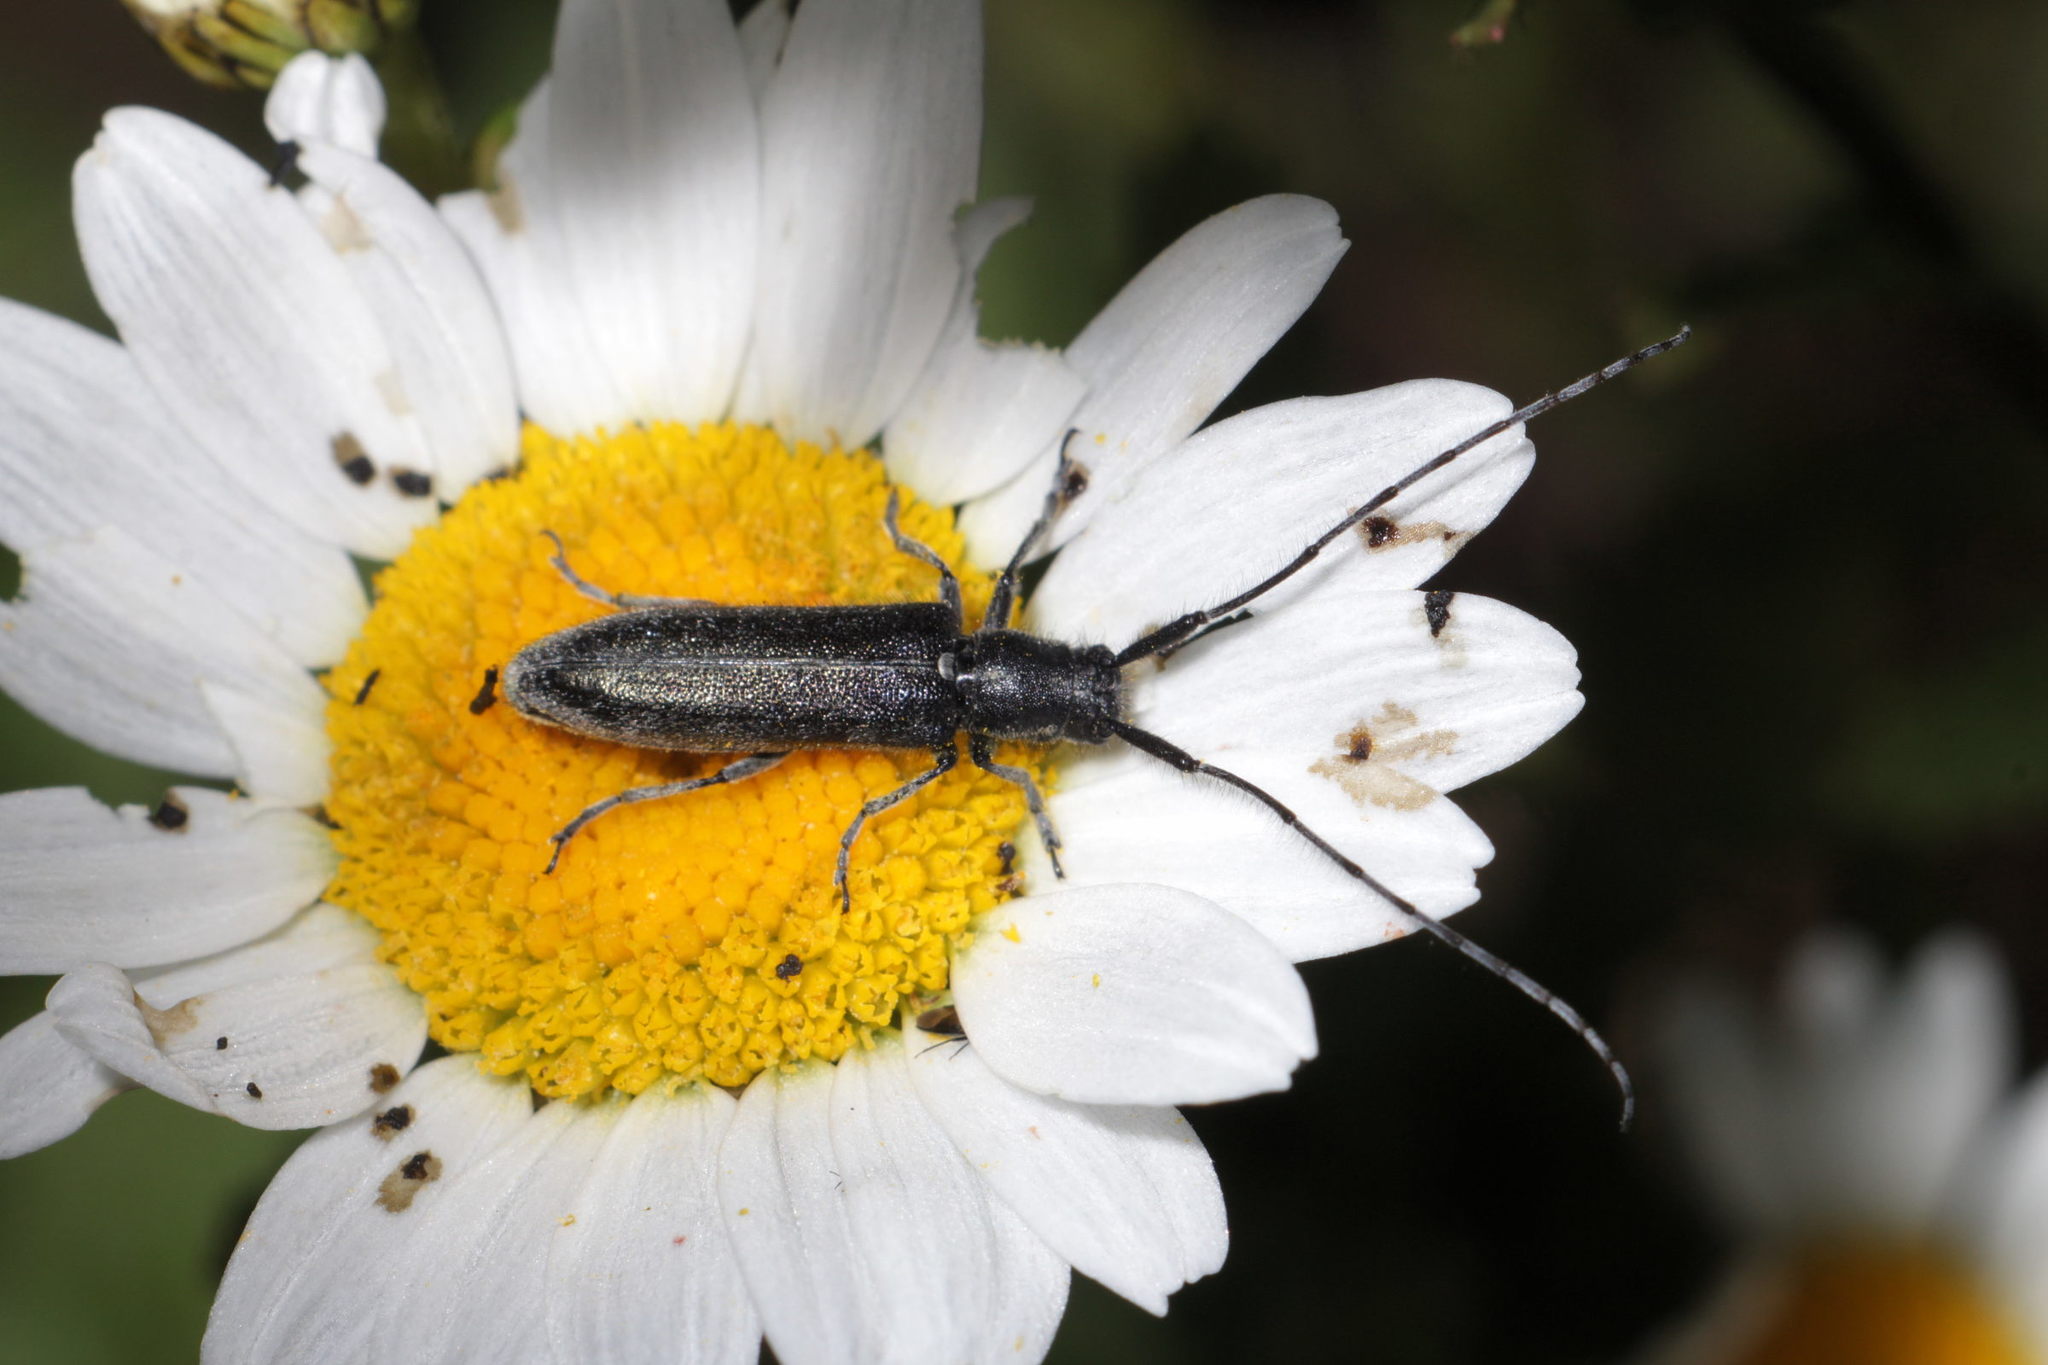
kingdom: Animalia
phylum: Arthropoda
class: Insecta
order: Coleoptera
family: Cerambycidae
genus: Agapanthia
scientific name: Agapanthia cardui
